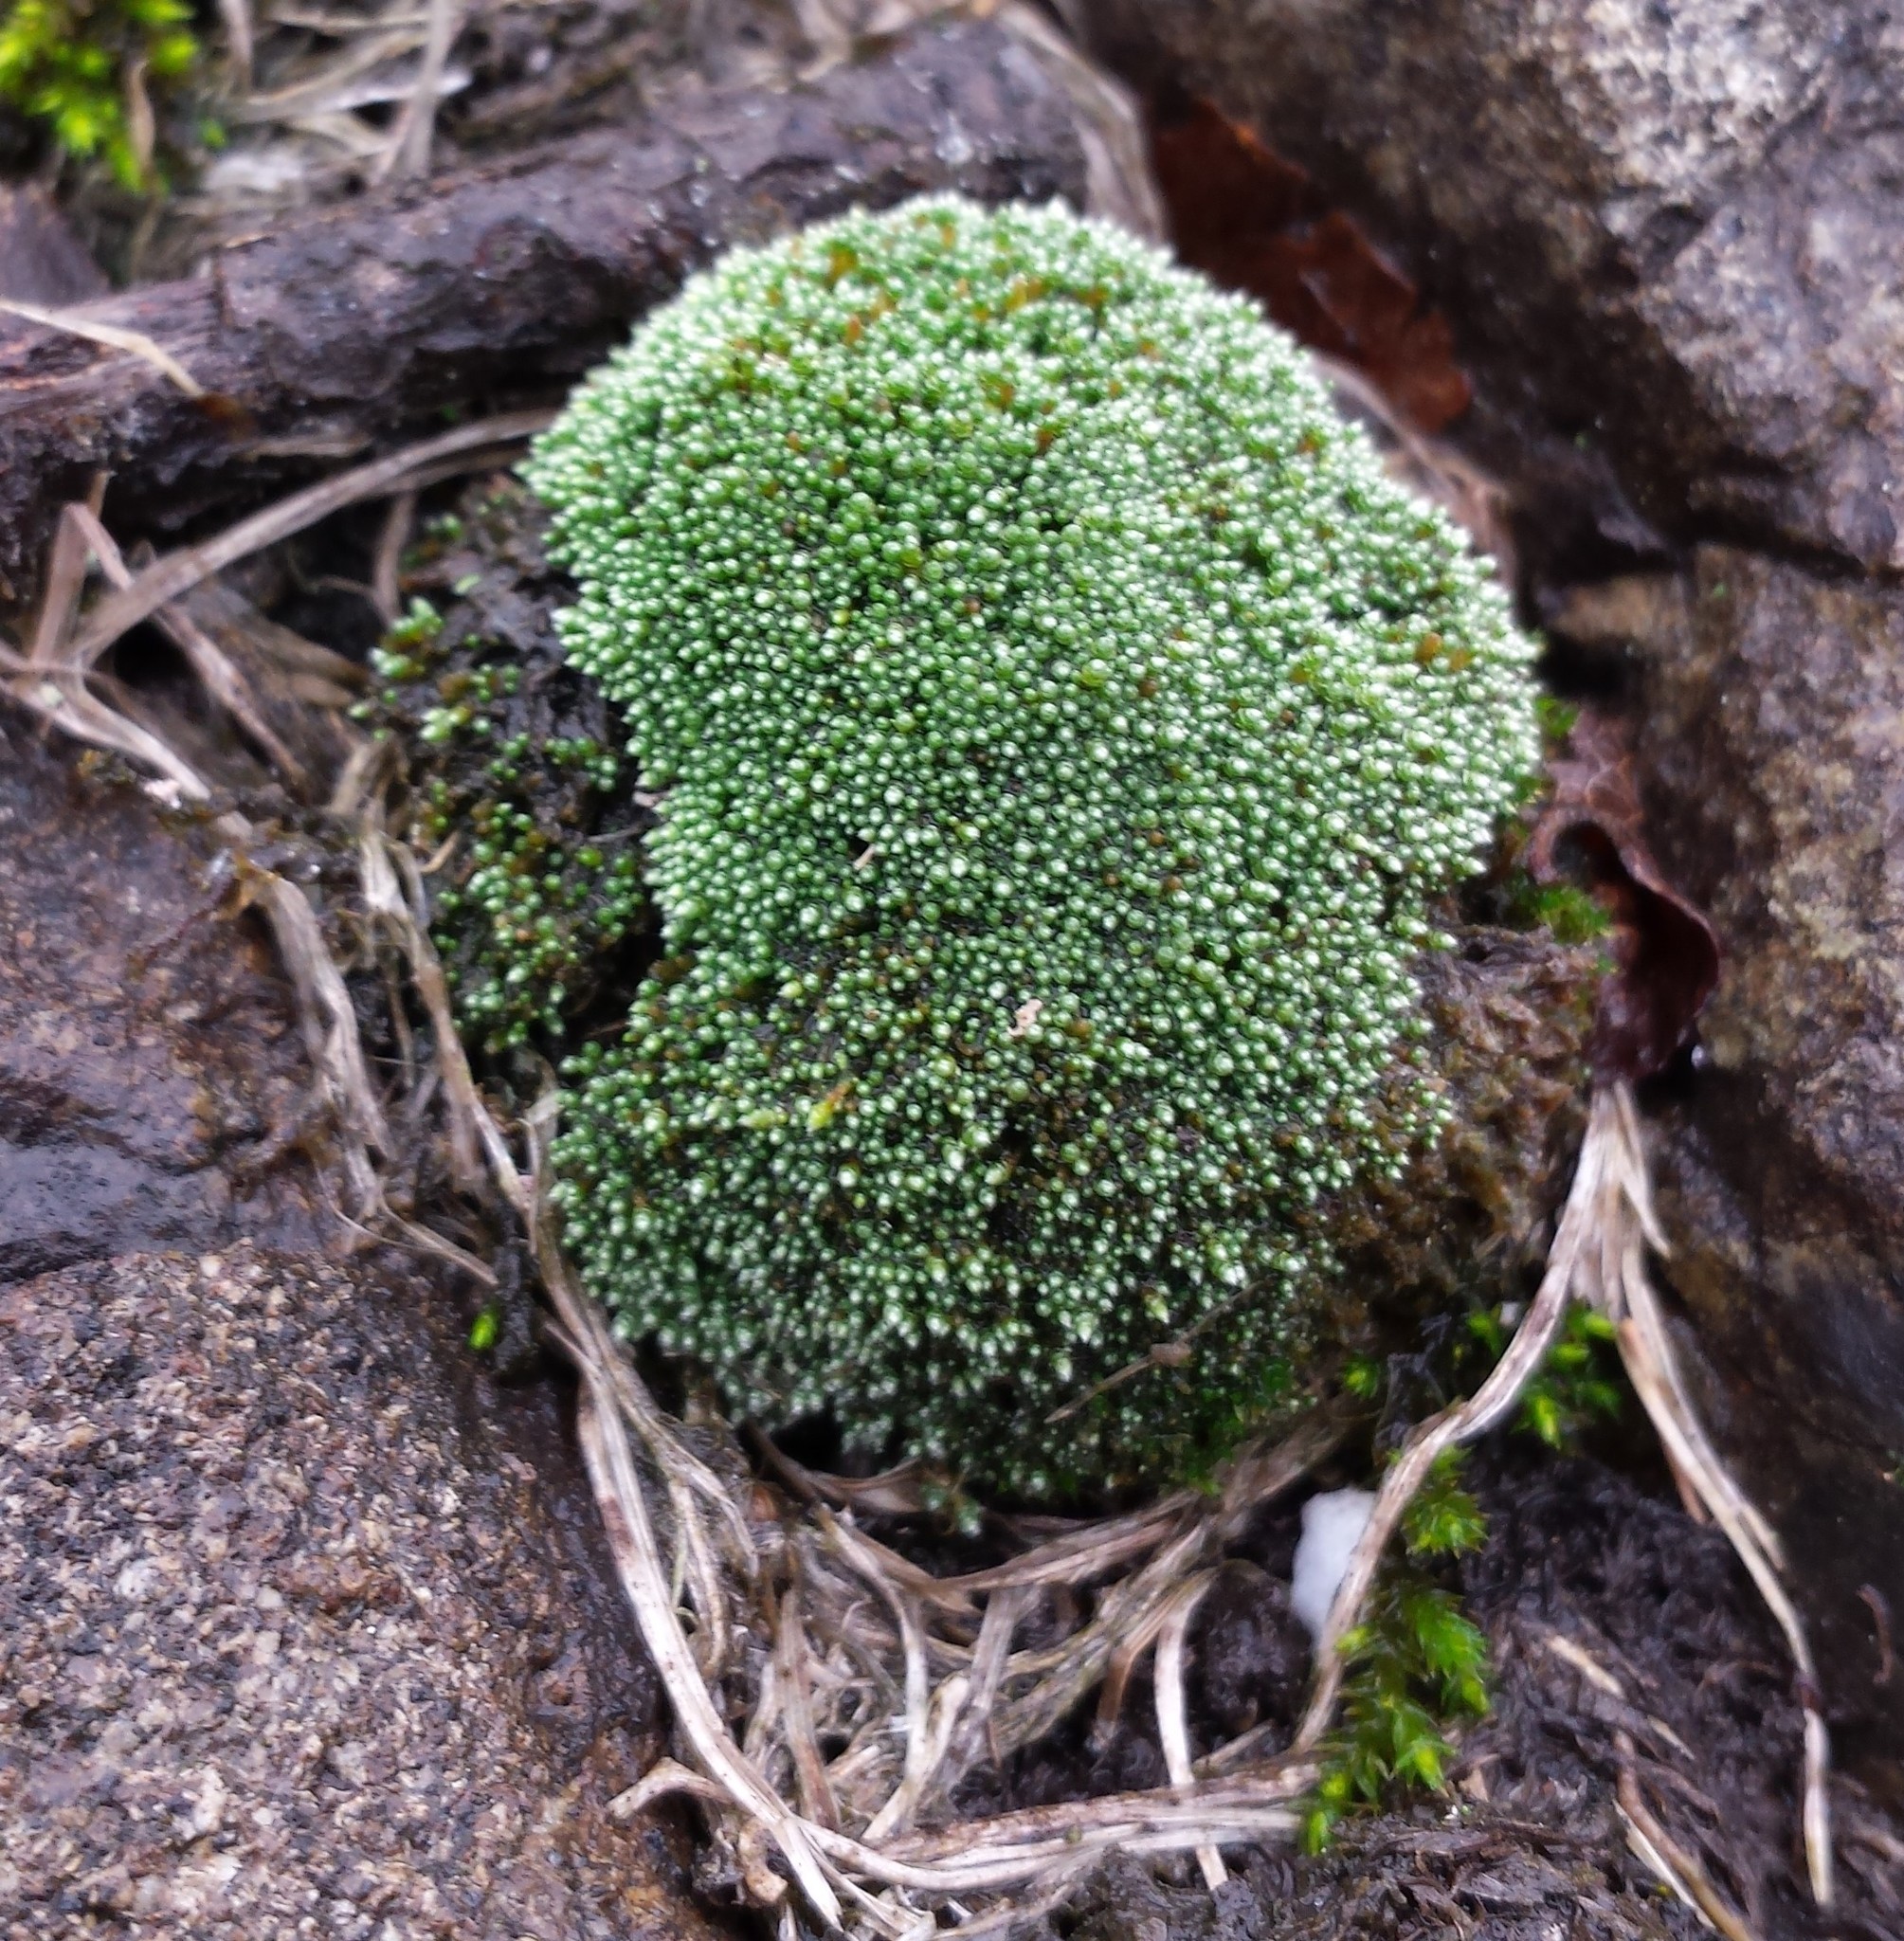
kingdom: Plantae
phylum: Bryophyta
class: Bryopsida
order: Bryales
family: Bryaceae
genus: Bryum
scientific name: Bryum argenteum
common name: Silver-moss
